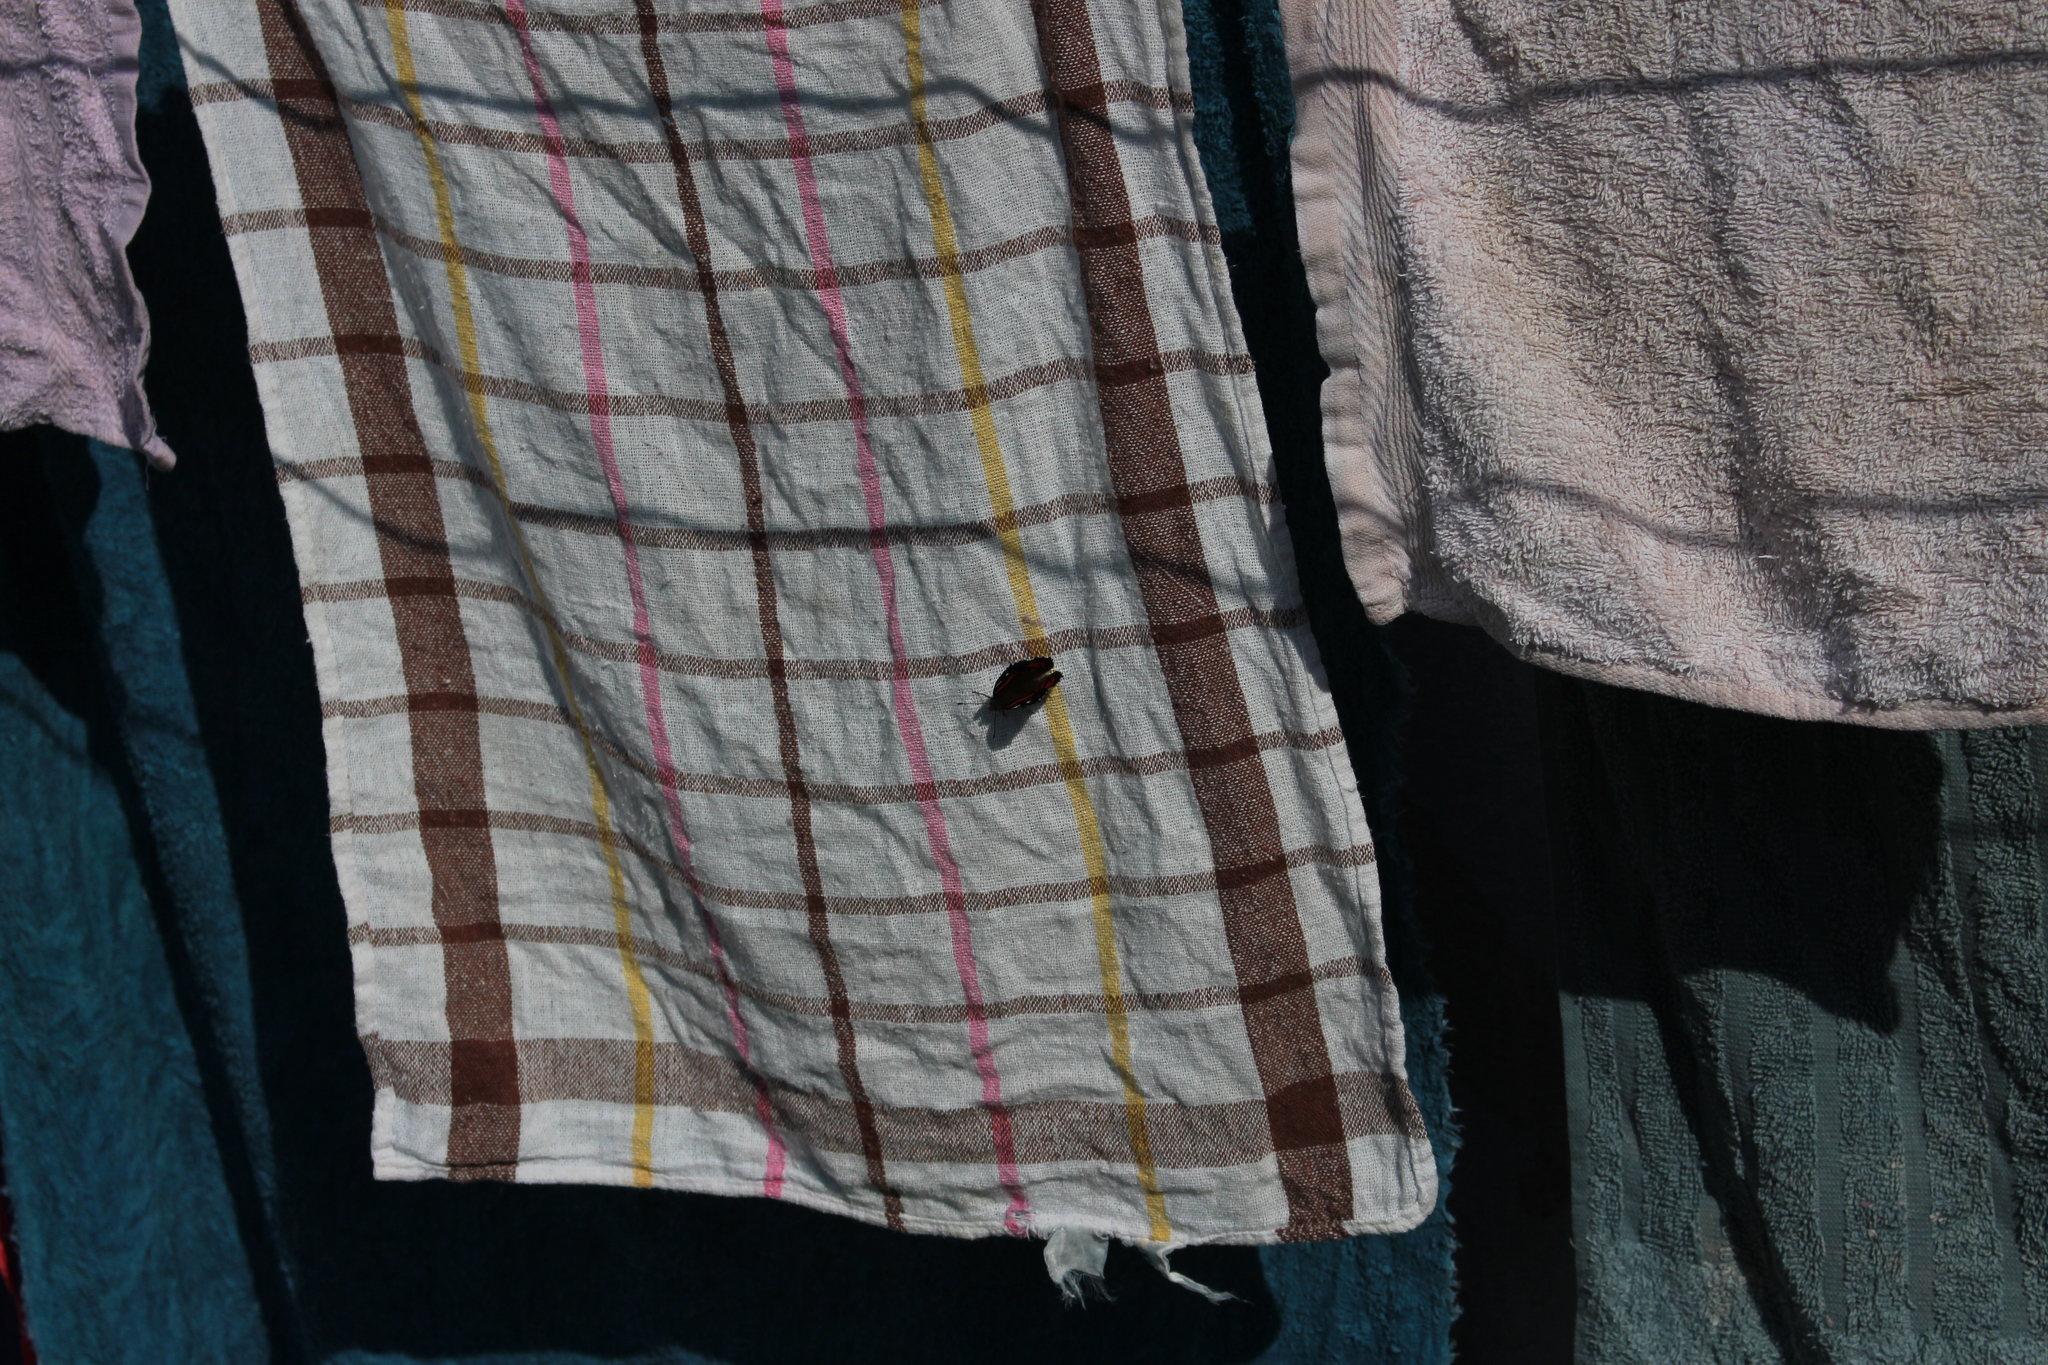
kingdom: Animalia
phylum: Arthropoda
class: Insecta
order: Lepidoptera
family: Nymphalidae
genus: Vanessa
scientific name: Vanessa gonerilla
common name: New zealand red admiral
